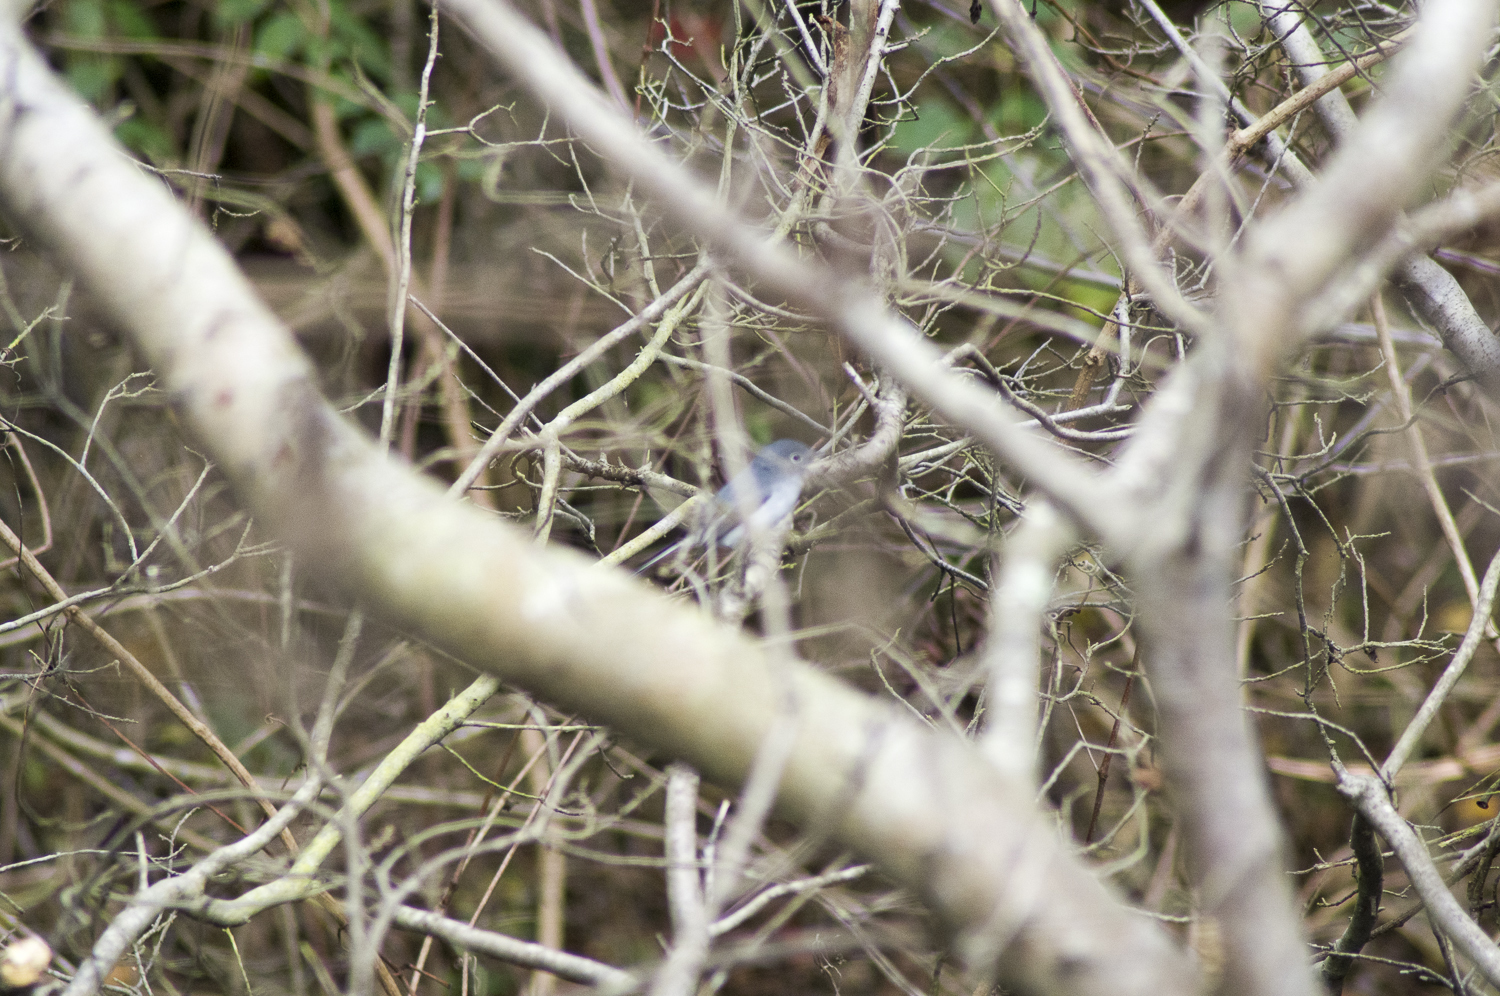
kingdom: Animalia
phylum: Chordata
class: Aves
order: Passeriformes
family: Polioptilidae
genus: Polioptila
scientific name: Polioptila caerulea
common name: Blue-gray gnatcatcher
